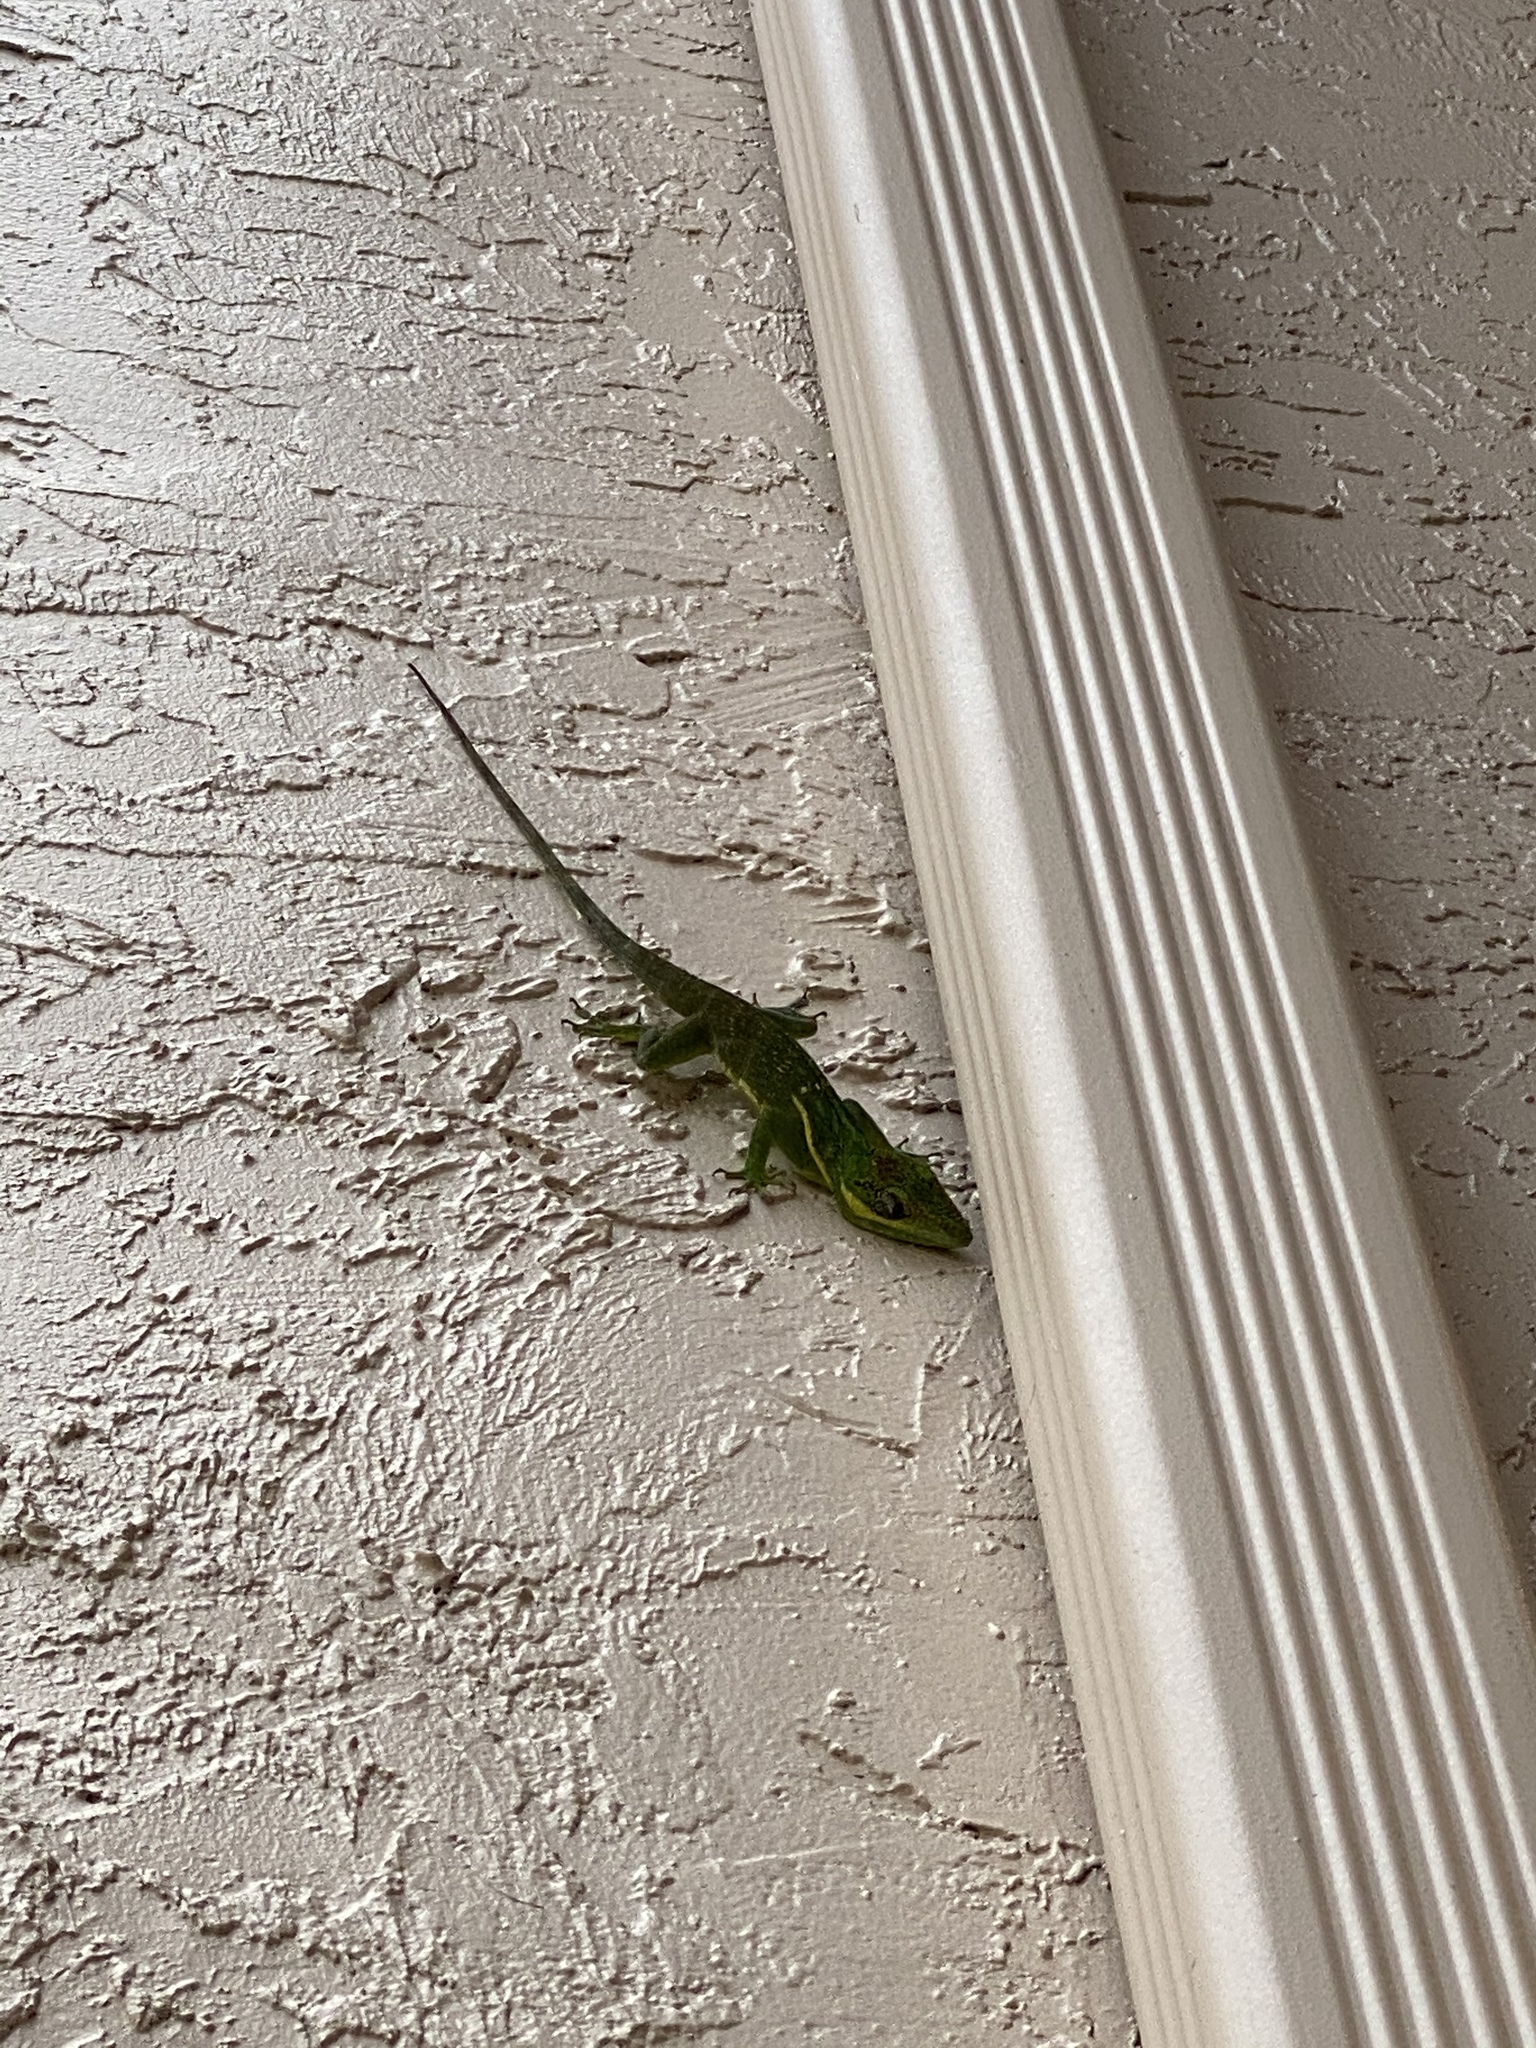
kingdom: Animalia
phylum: Chordata
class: Squamata
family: Dactyloidae
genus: Anolis
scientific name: Anolis equestris
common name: Knight anole
